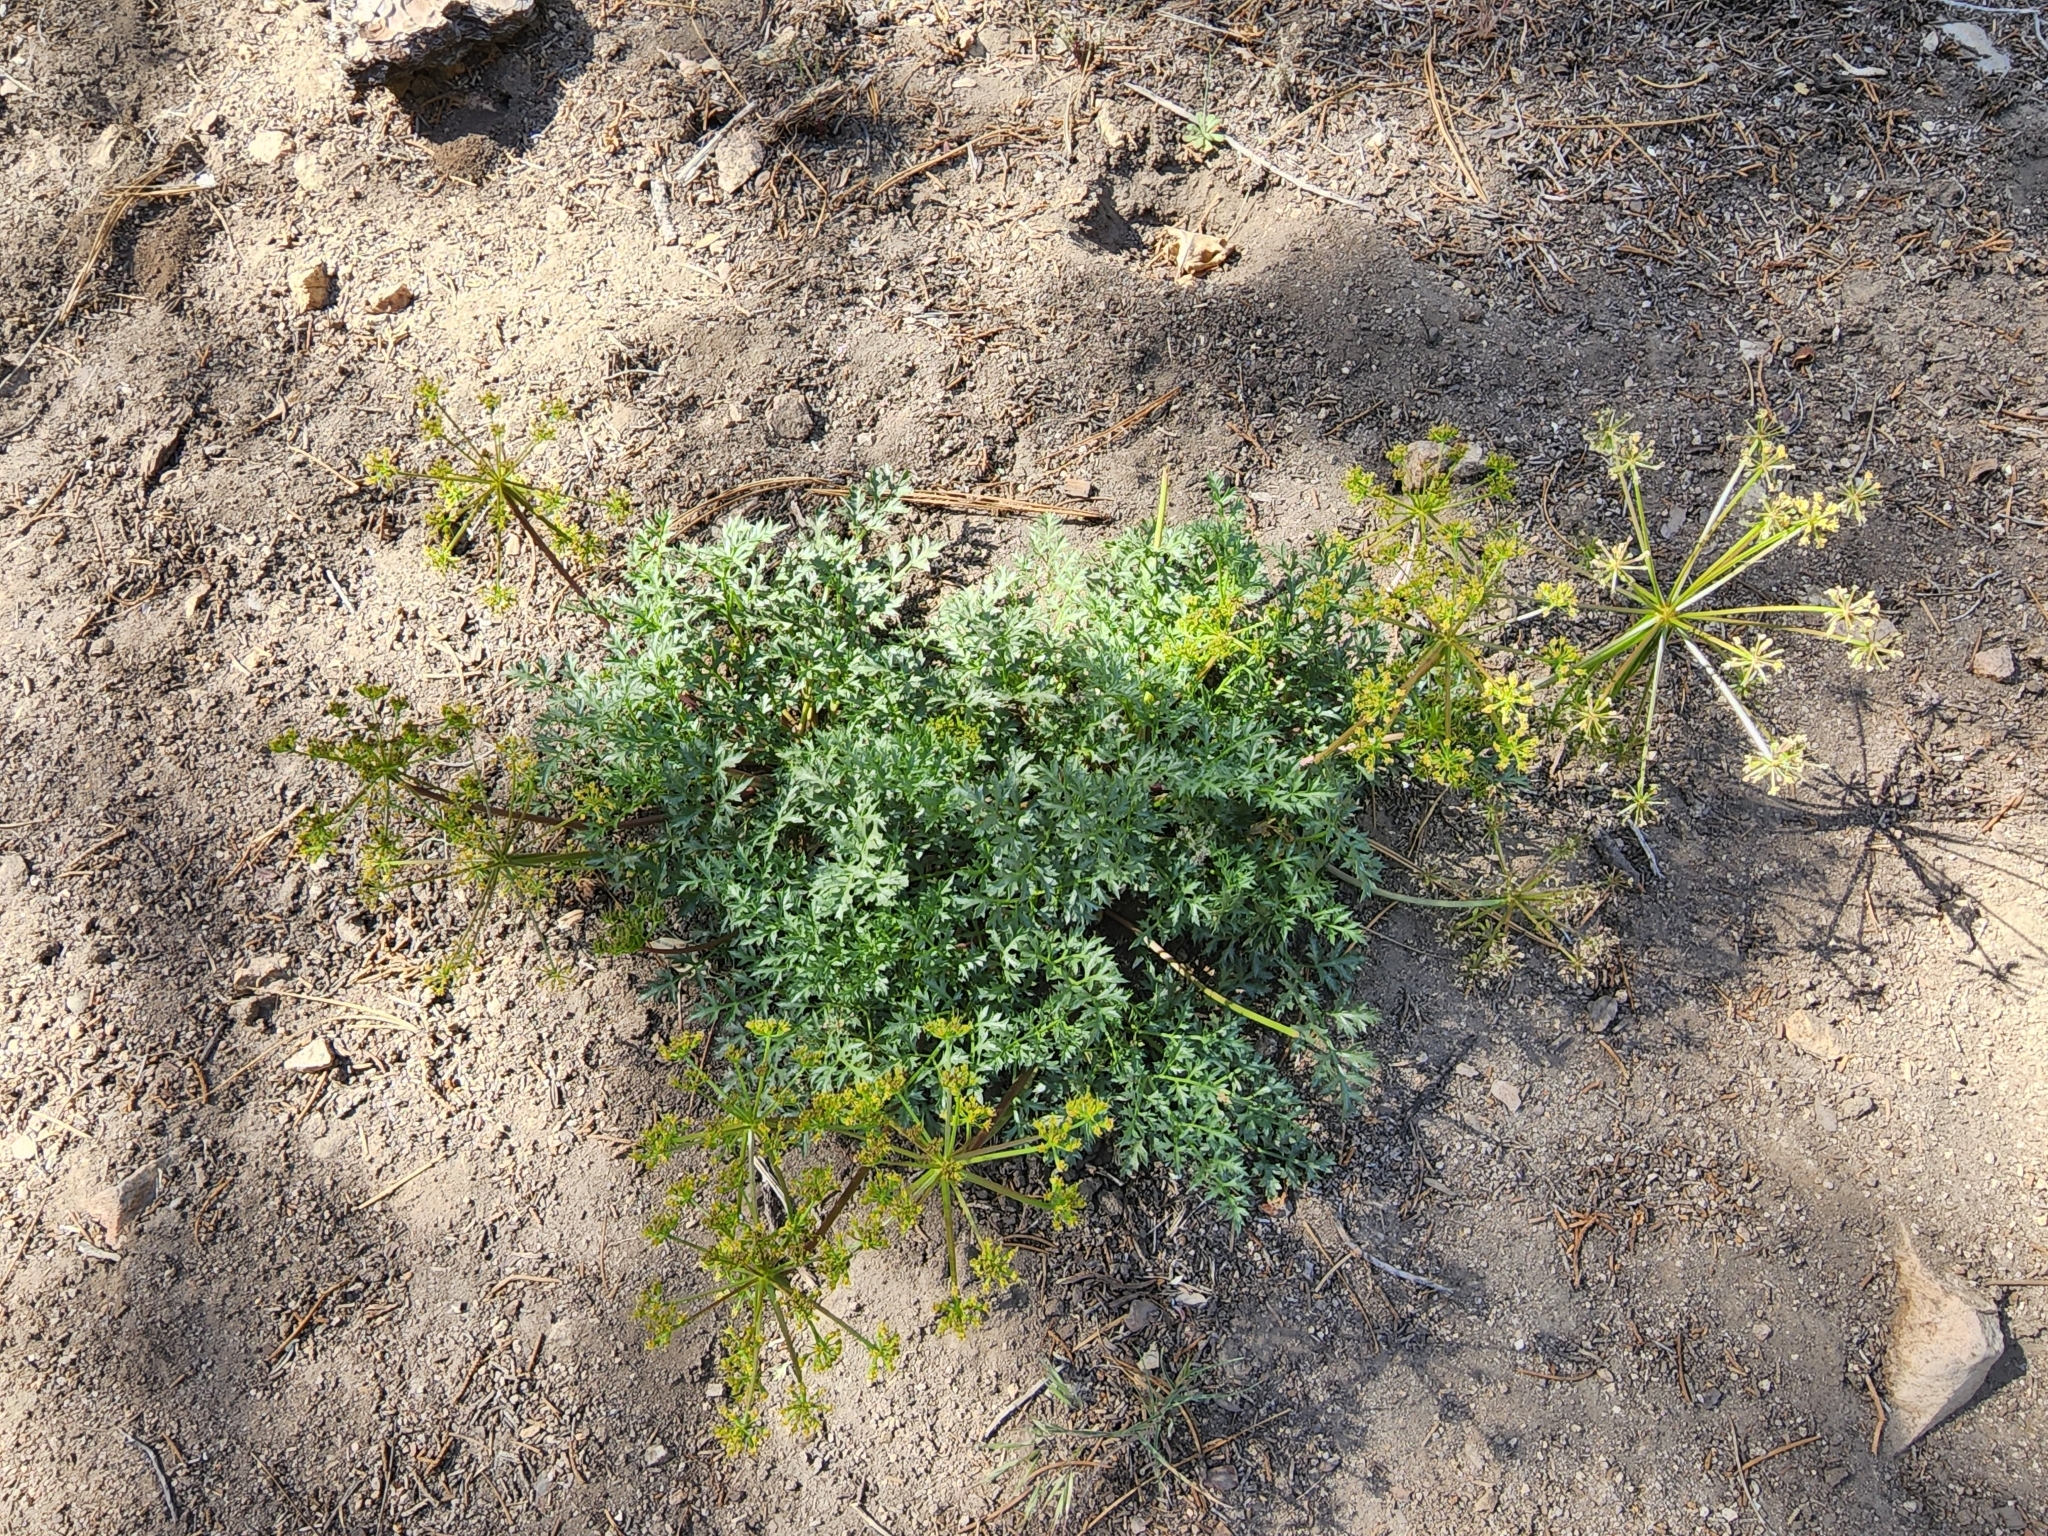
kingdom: Plantae
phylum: Tracheophyta
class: Magnoliopsida
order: Apiales
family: Apiaceae
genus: Tauschia
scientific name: Tauschia parishii
